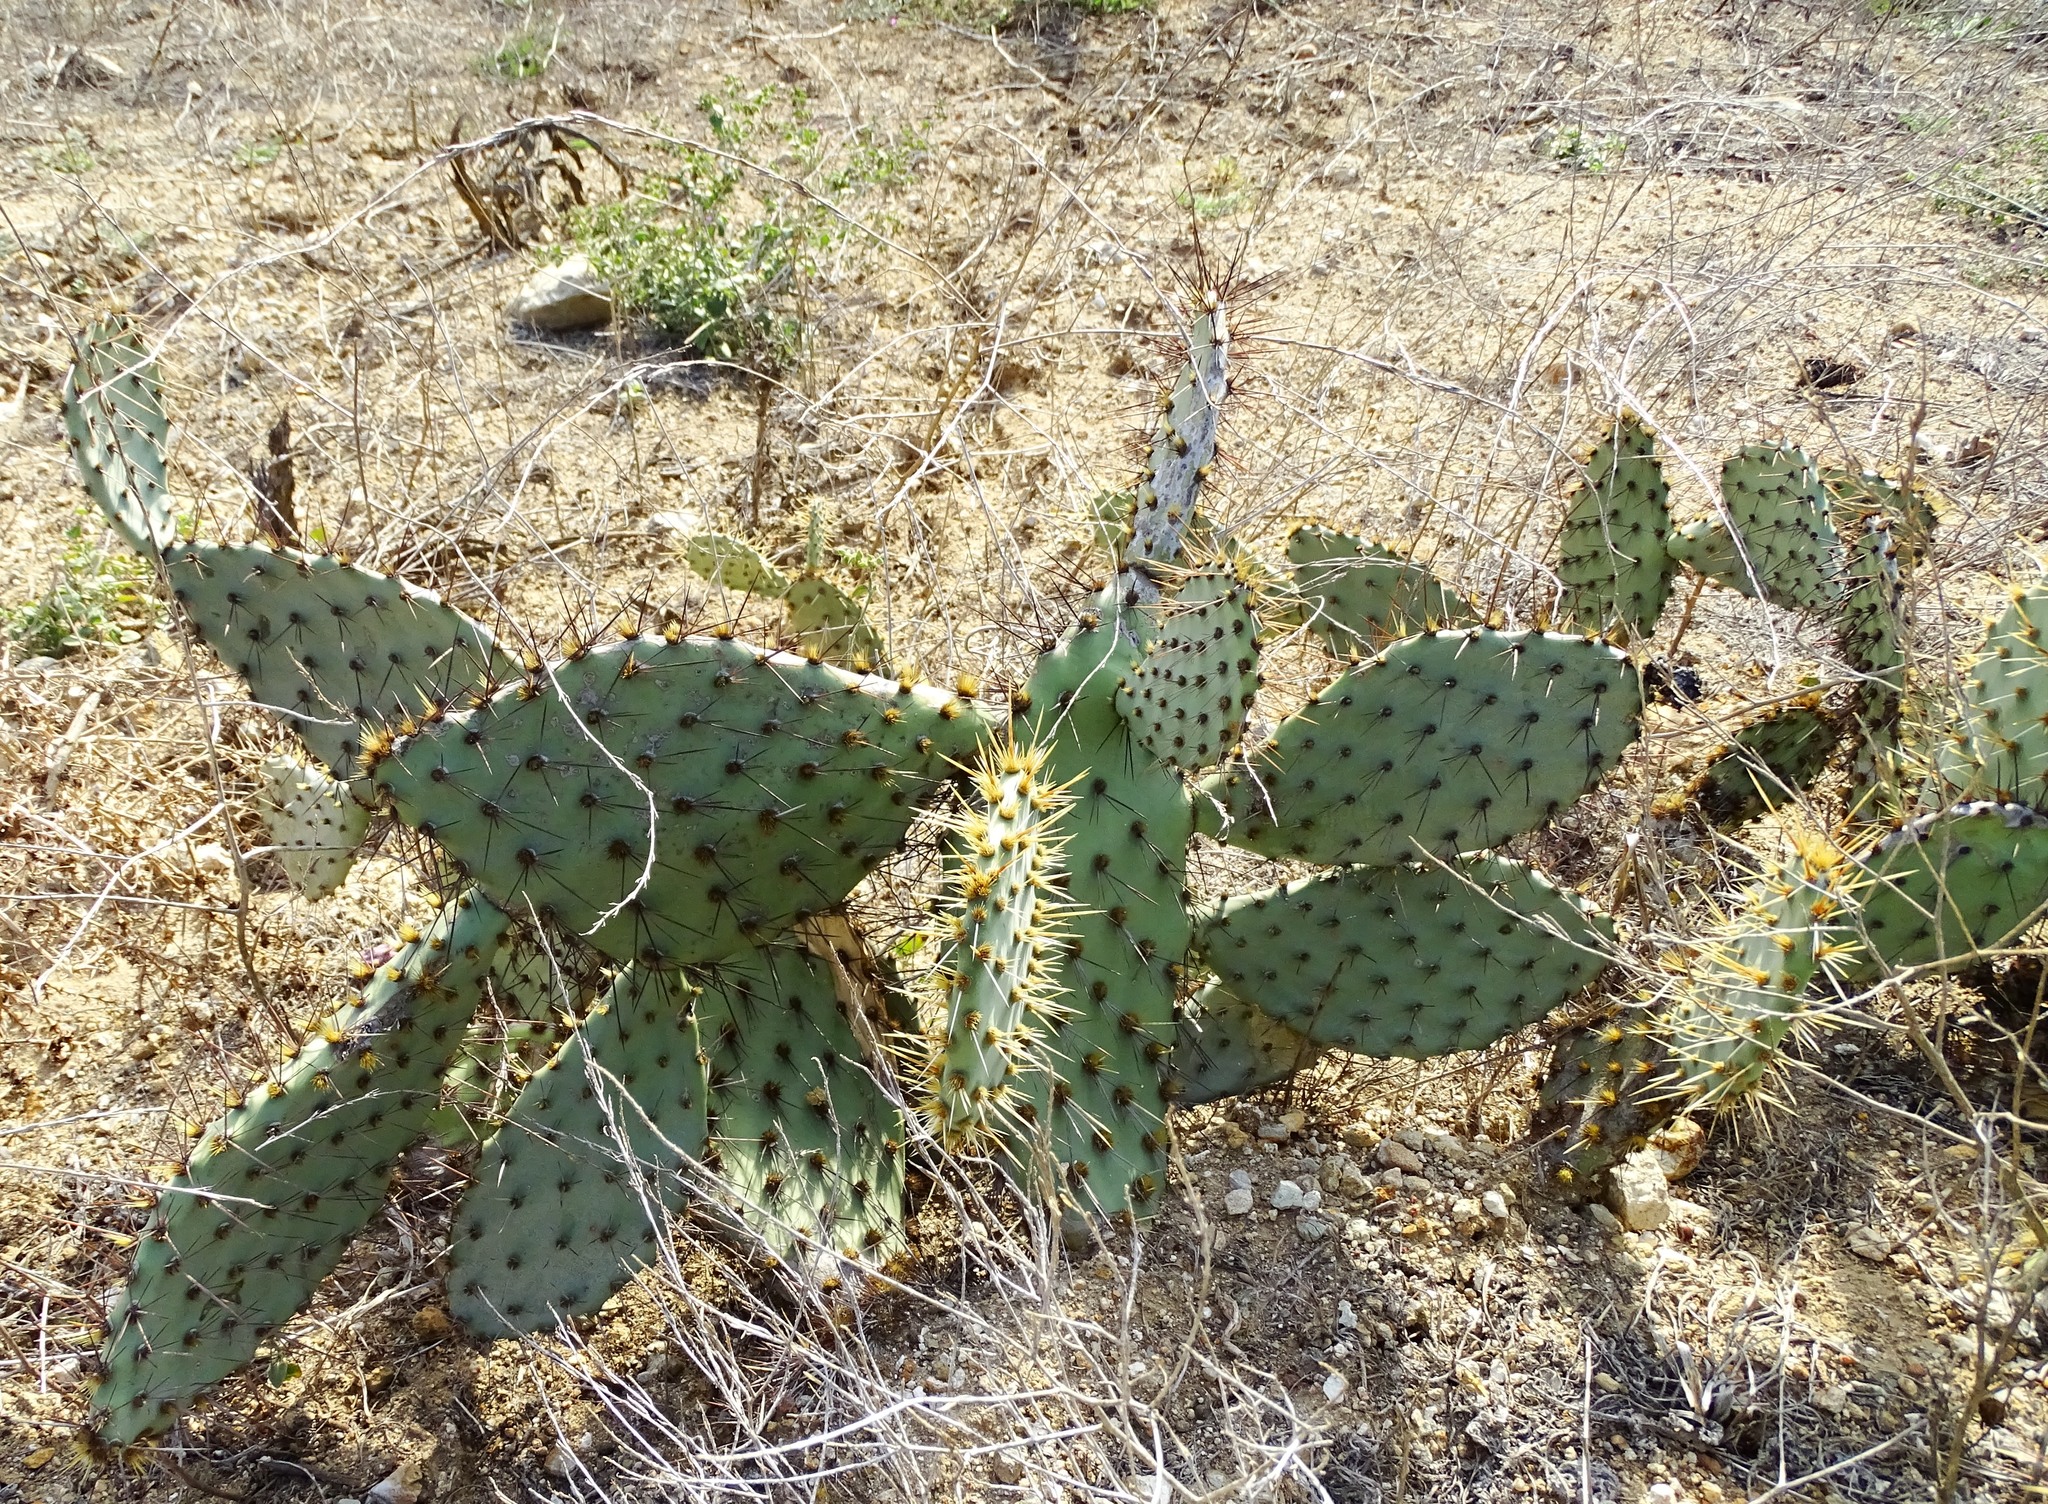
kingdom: Plantae
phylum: Tracheophyta
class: Magnoliopsida
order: Caryophyllales
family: Cactaceae
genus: Opuntia
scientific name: Opuntia littoralis
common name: Coastal prickly-pear
